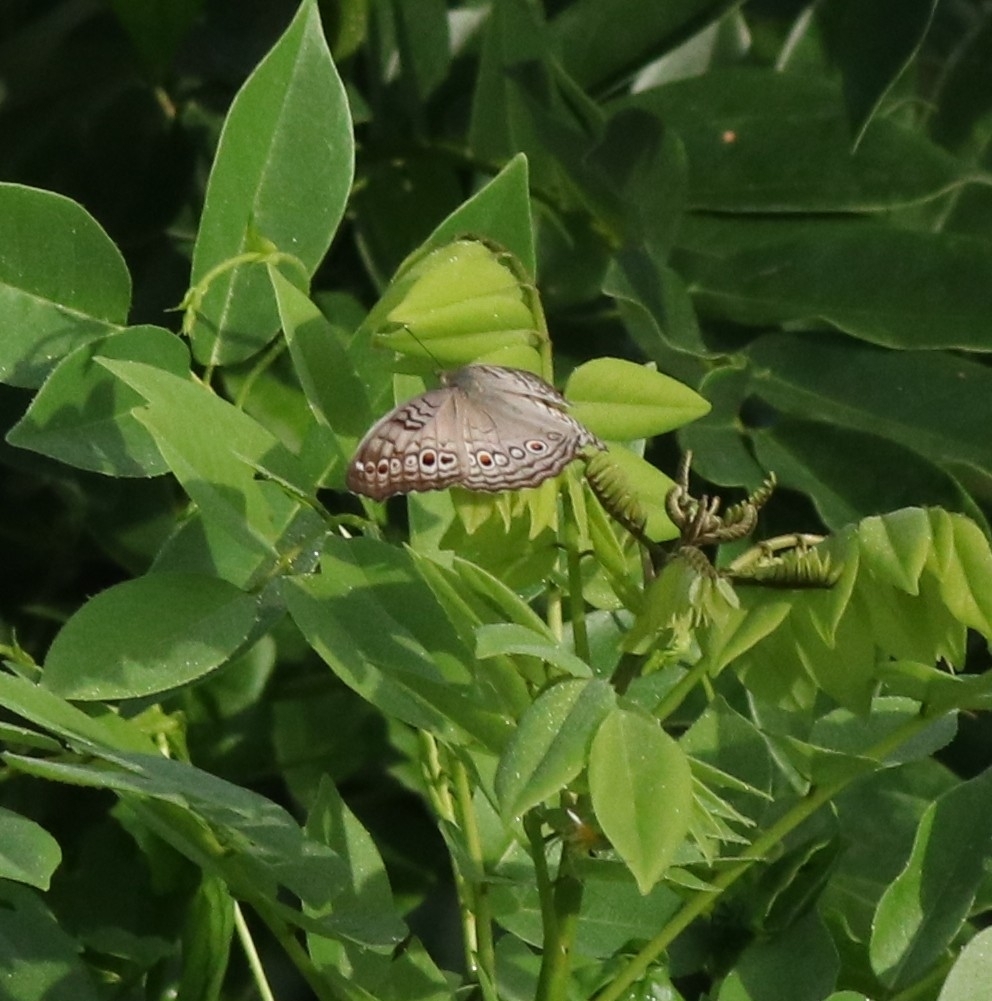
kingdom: Animalia
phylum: Arthropoda
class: Insecta
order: Lepidoptera
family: Nymphalidae
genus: Junonia
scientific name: Junonia atlites
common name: Grey pansy
